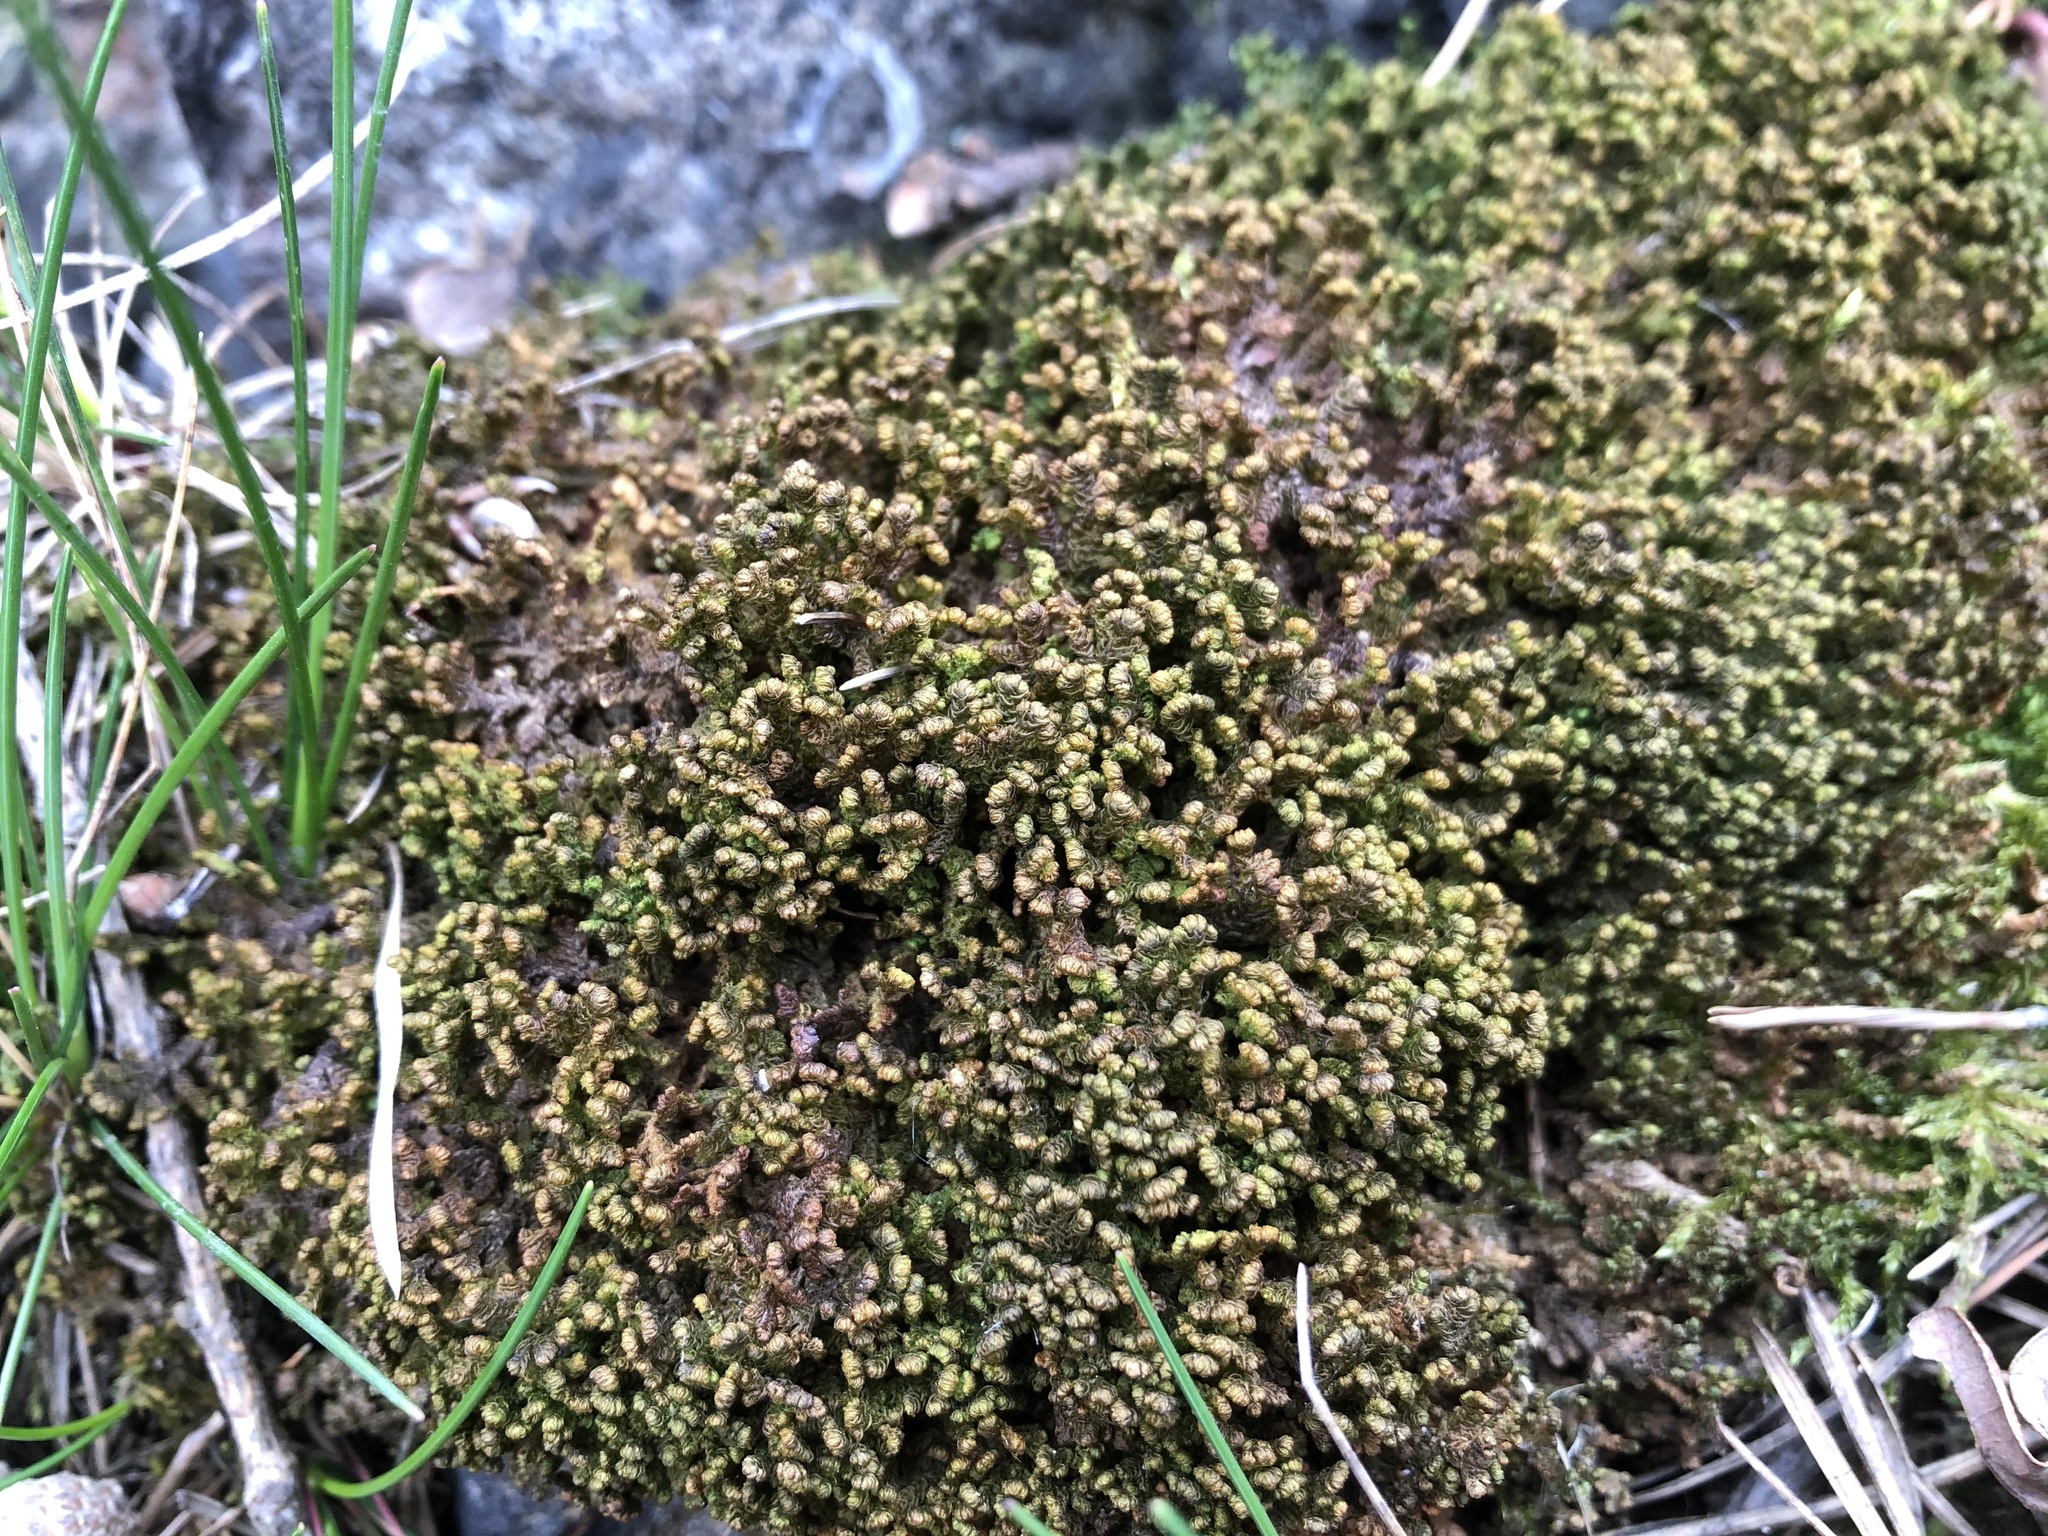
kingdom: Plantae
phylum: Marchantiophyta
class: Jungermanniopsida
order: Ptilidiales
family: Ptilidiaceae
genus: Ptilidium
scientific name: Ptilidium ciliare
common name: Ciliate fringewort
